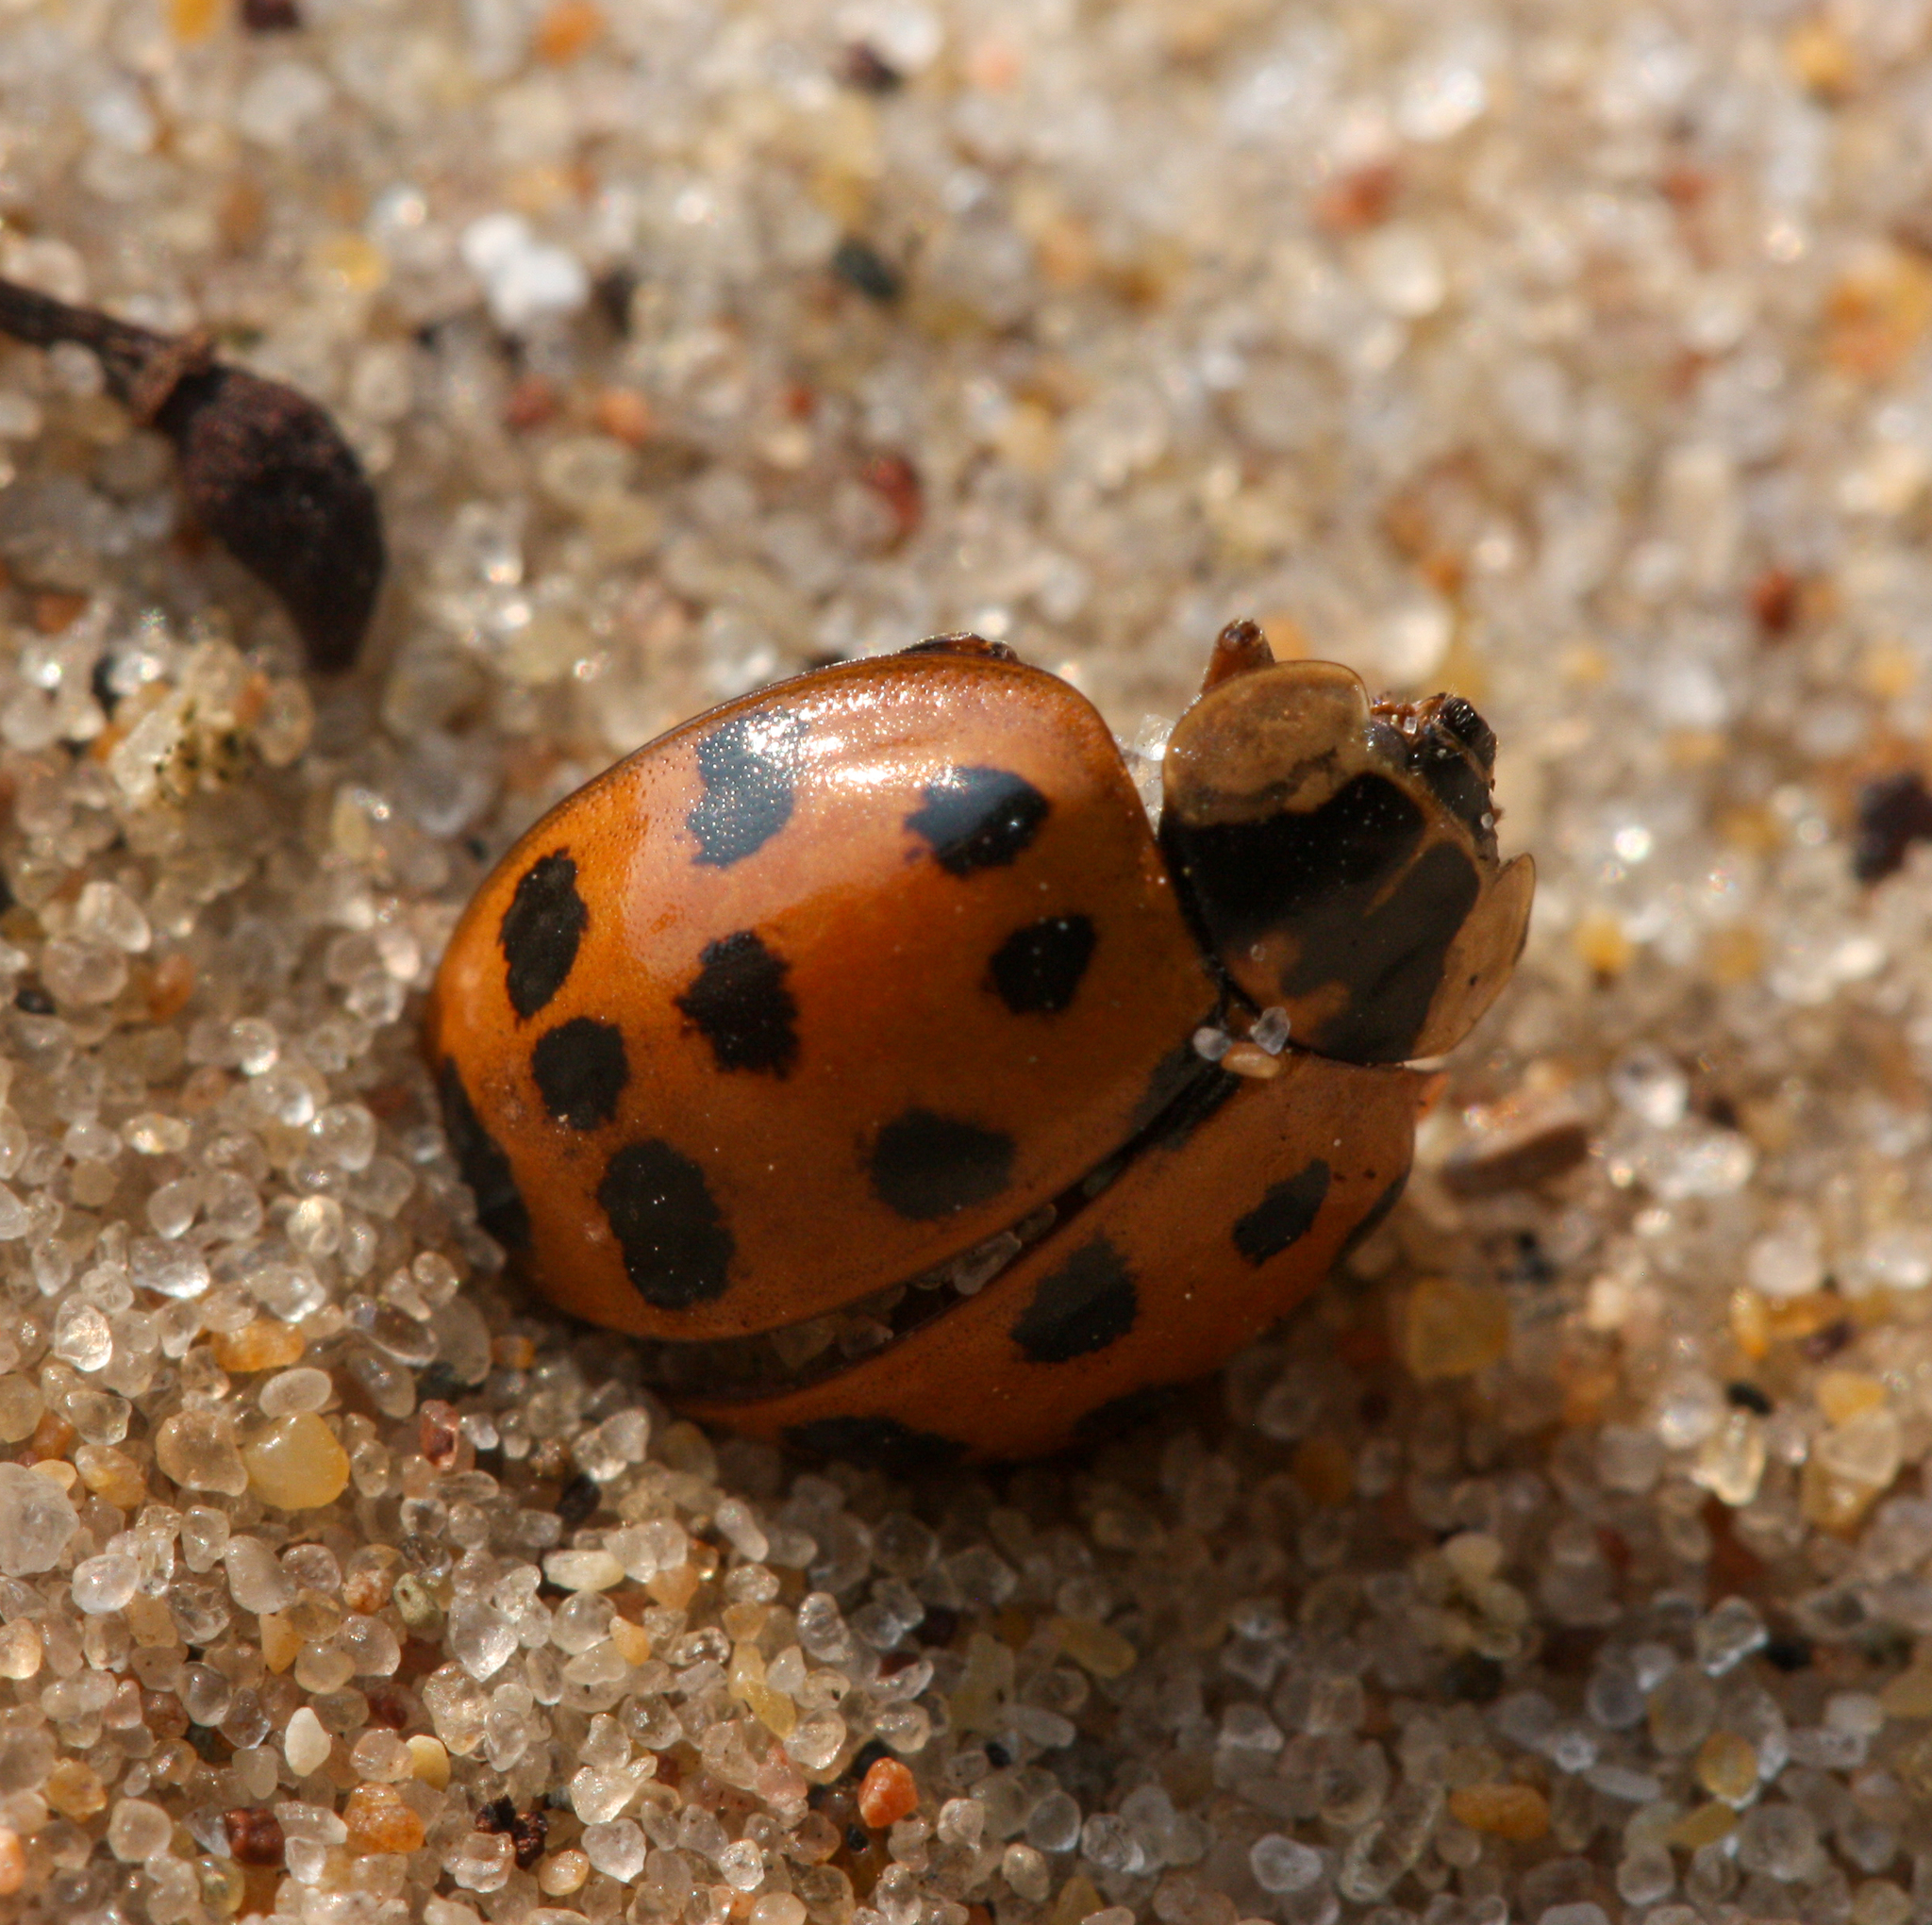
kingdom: Animalia
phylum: Arthropoda
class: Insecta
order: Coleoptera
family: Coccinellidae
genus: Harmonia
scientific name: Harmonia axyridis
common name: Harlequin ladybird
